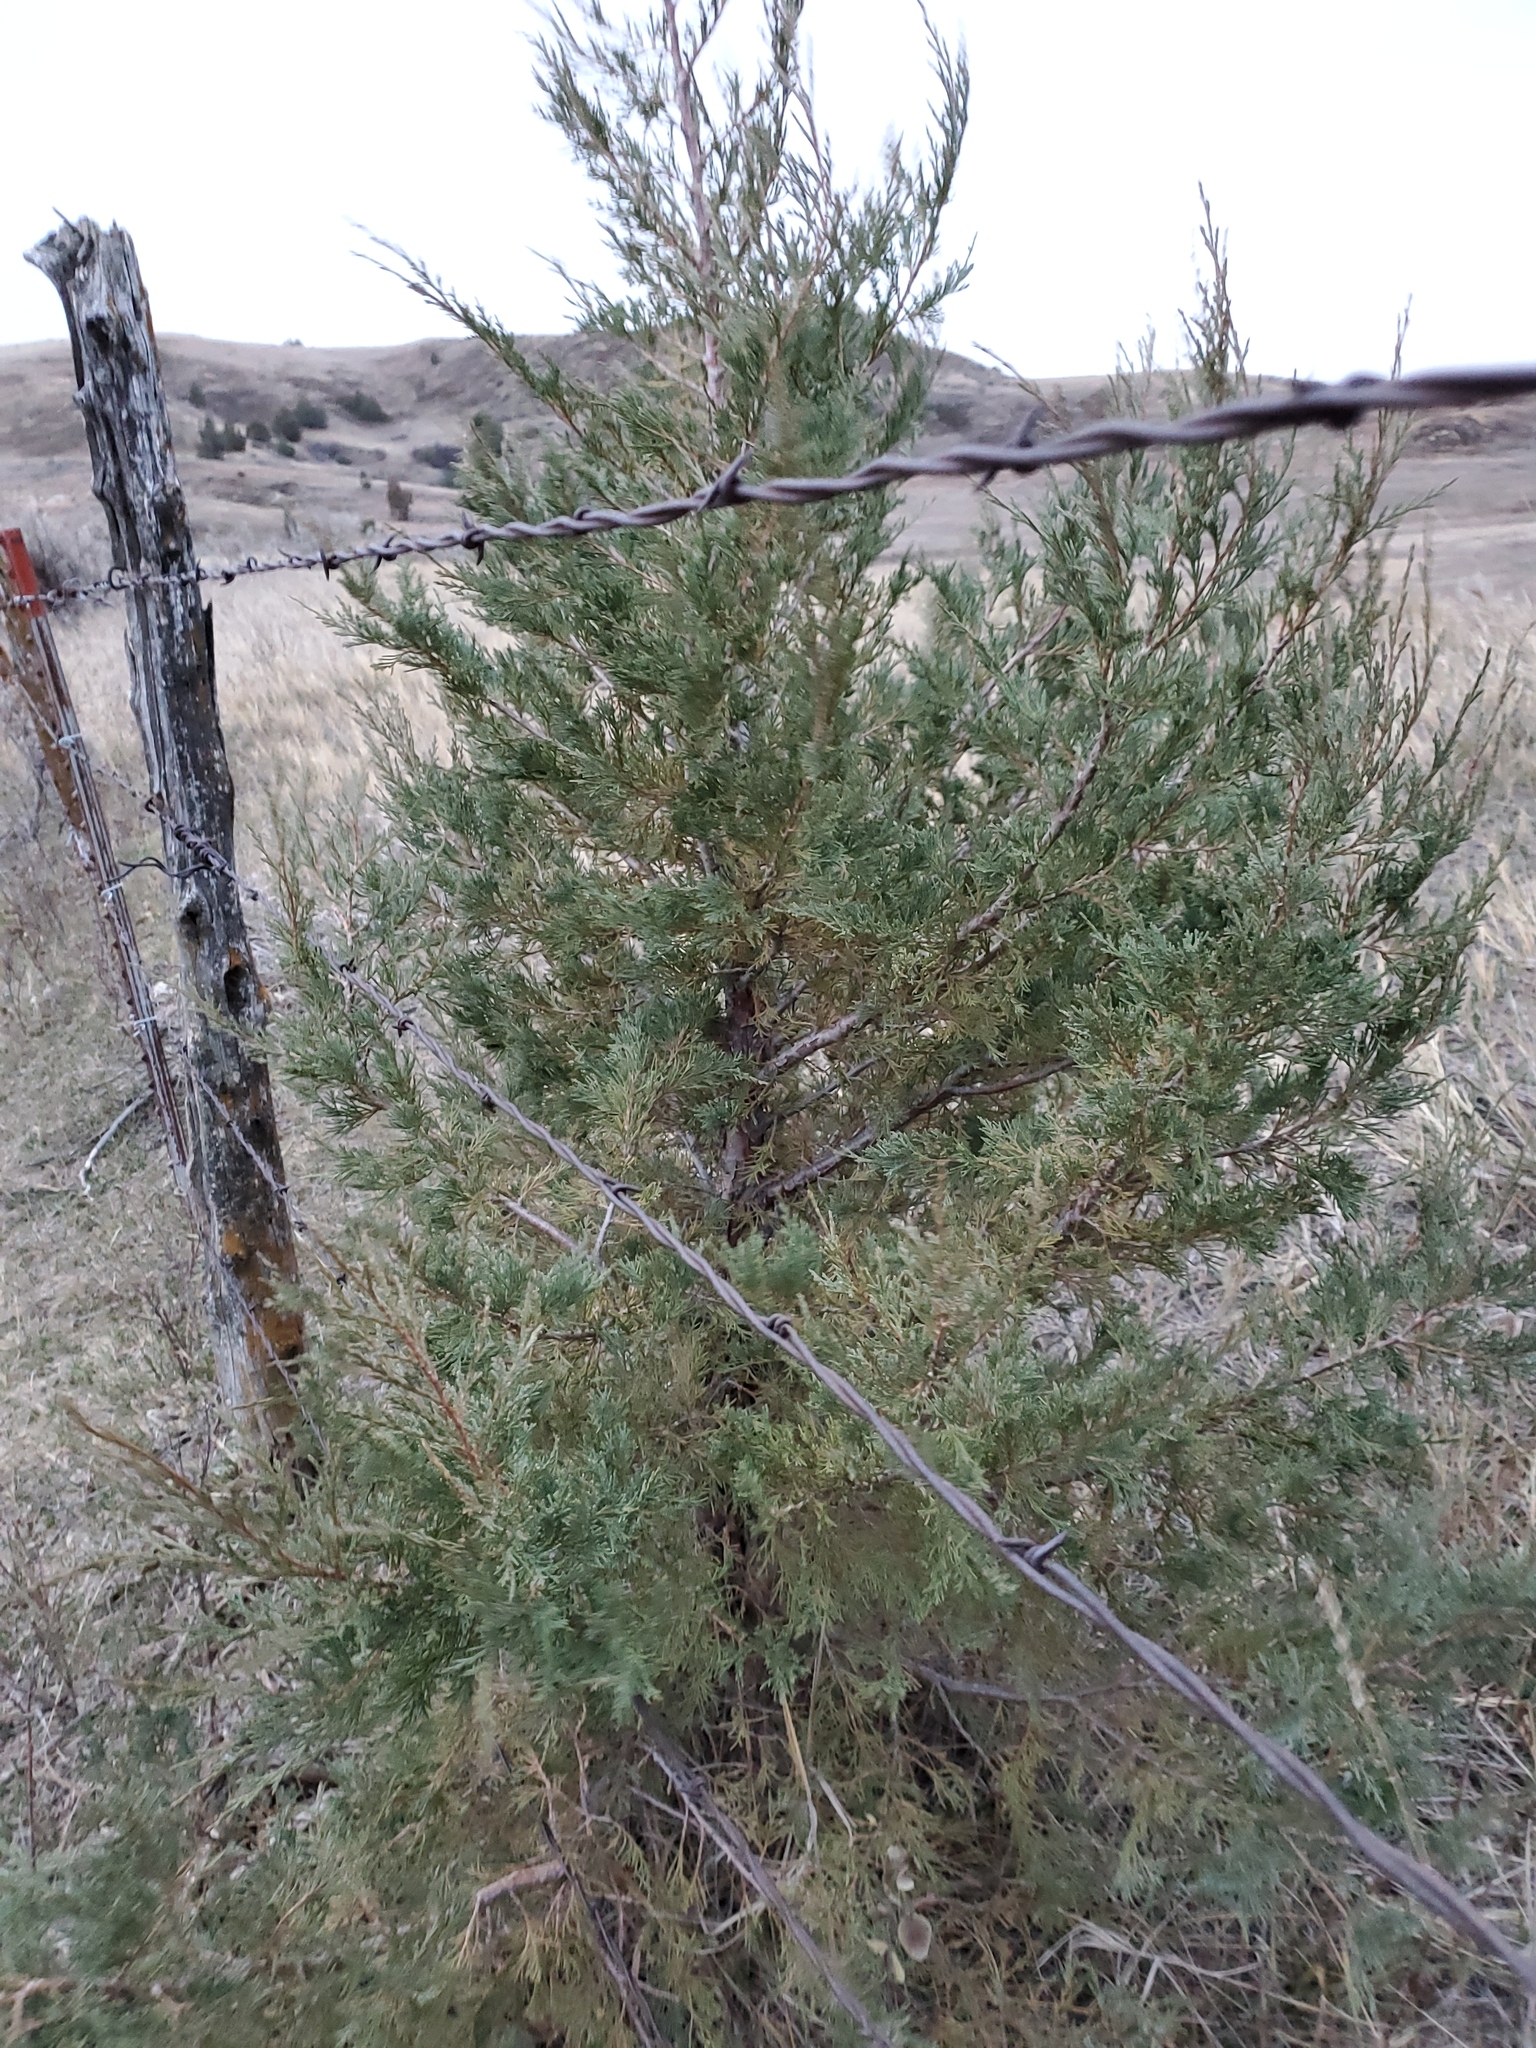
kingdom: Plantae
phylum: Tracheophyta
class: Pinopsida
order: Pinales
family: Cupressaceae
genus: Juniperus
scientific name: Juniperus scopulorum
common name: Rocky mountain juniper
